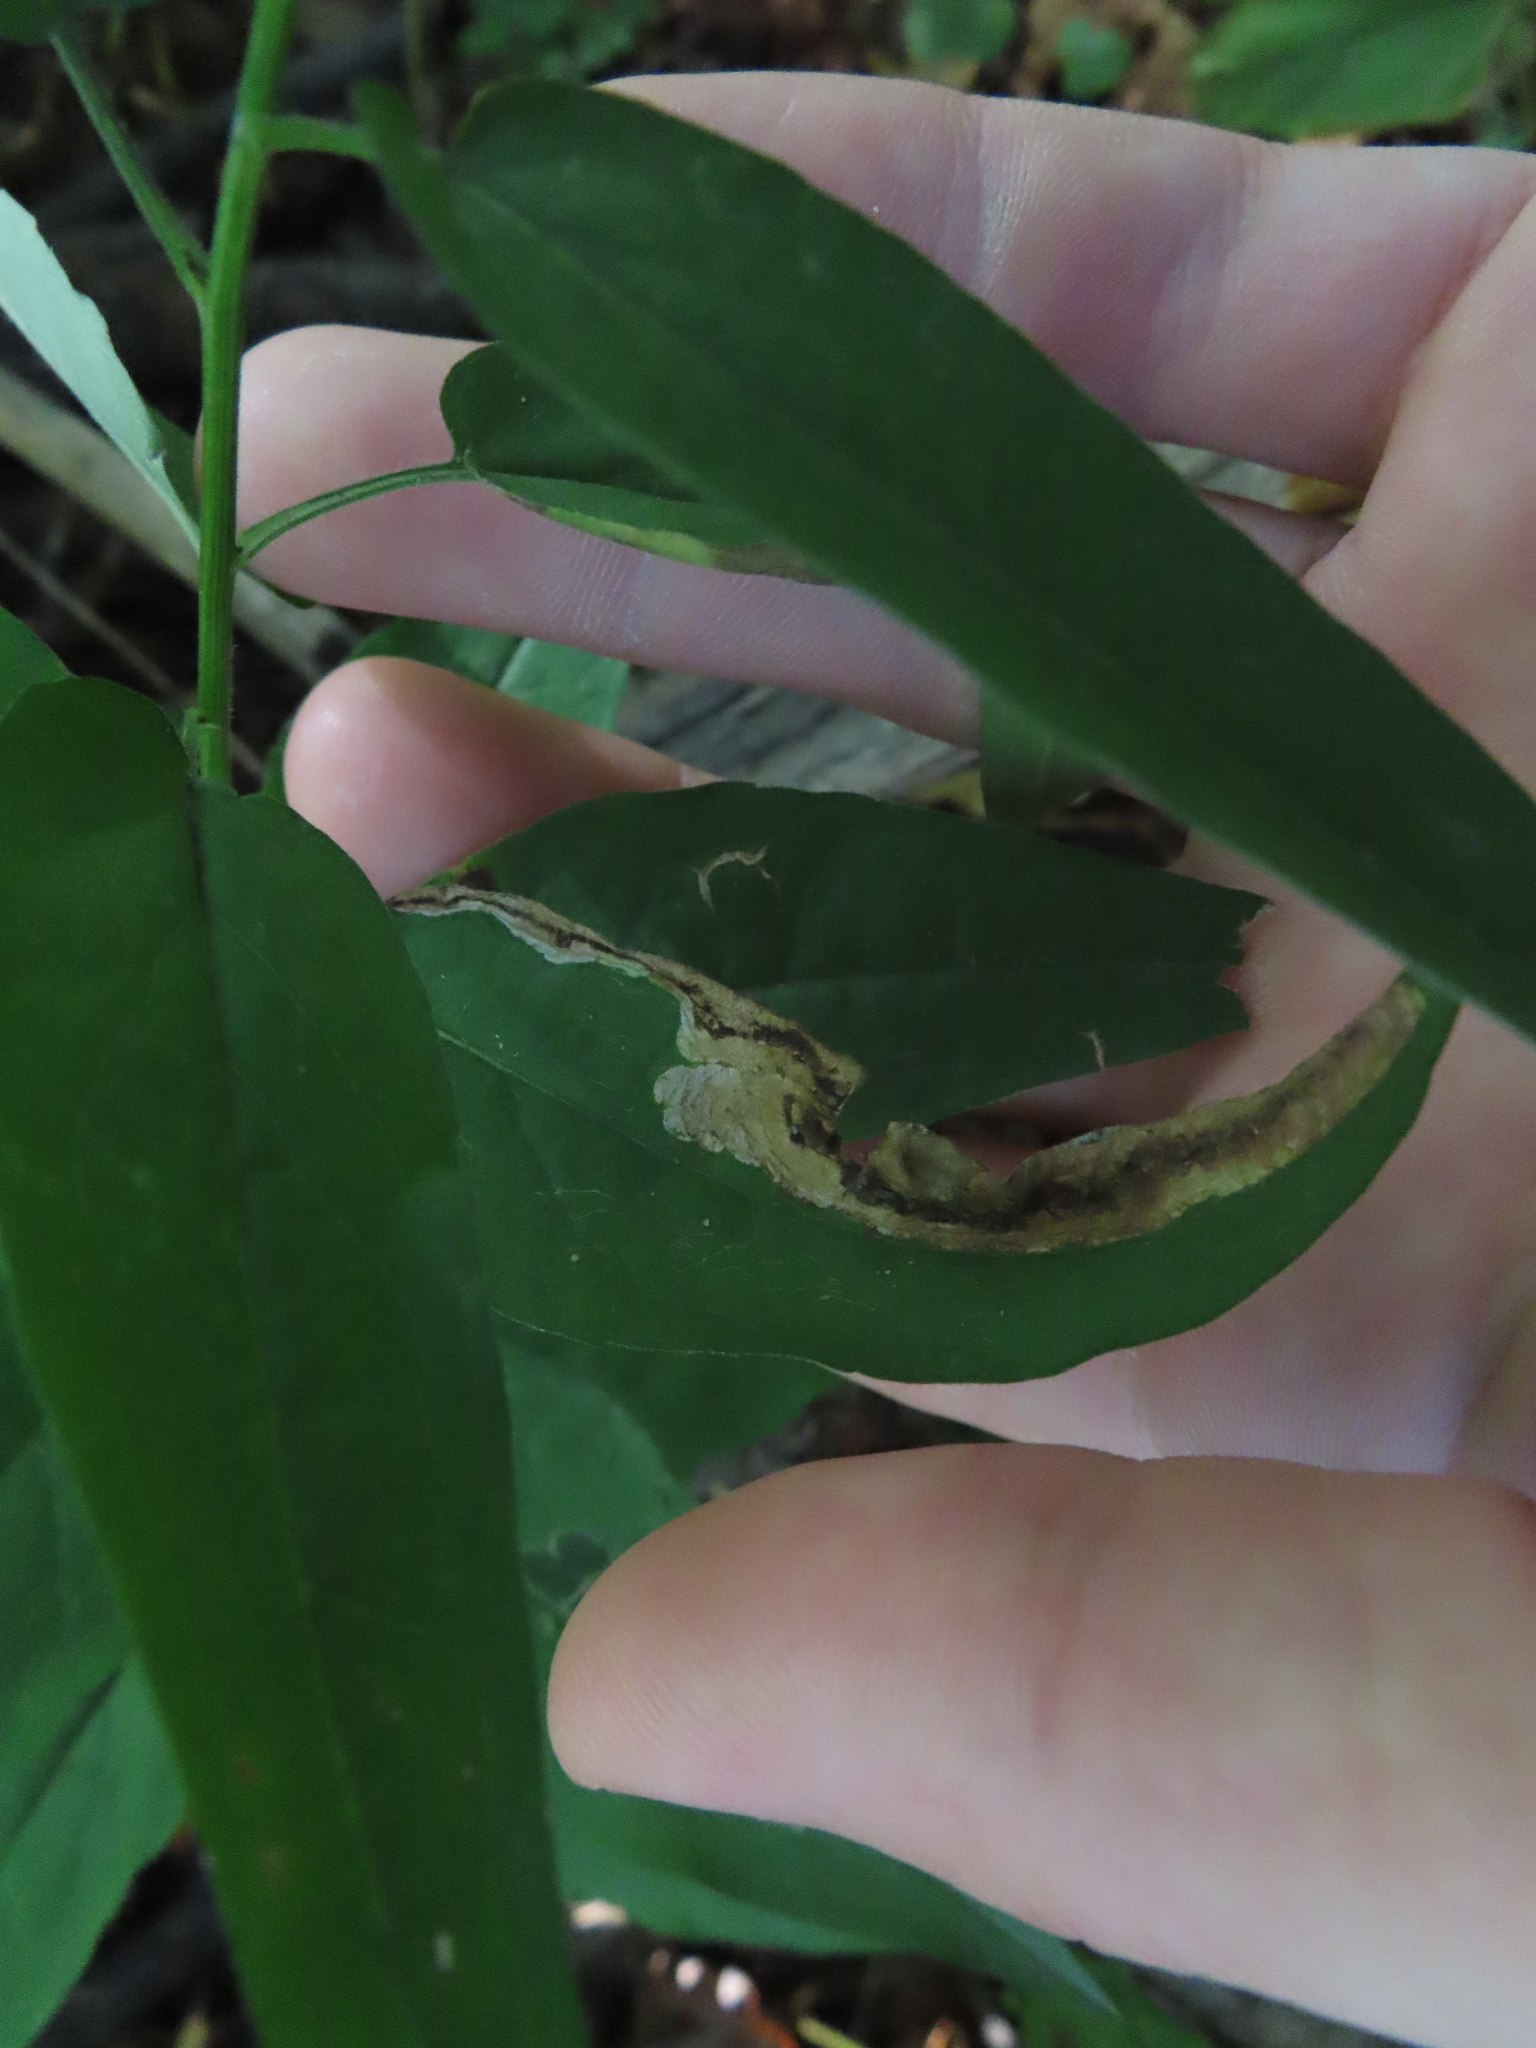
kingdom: Animalia
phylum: Arthropoda
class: Insecta
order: Diptera
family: Agromyzidae
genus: Nemorimyza
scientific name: Nemorimyza posticata
